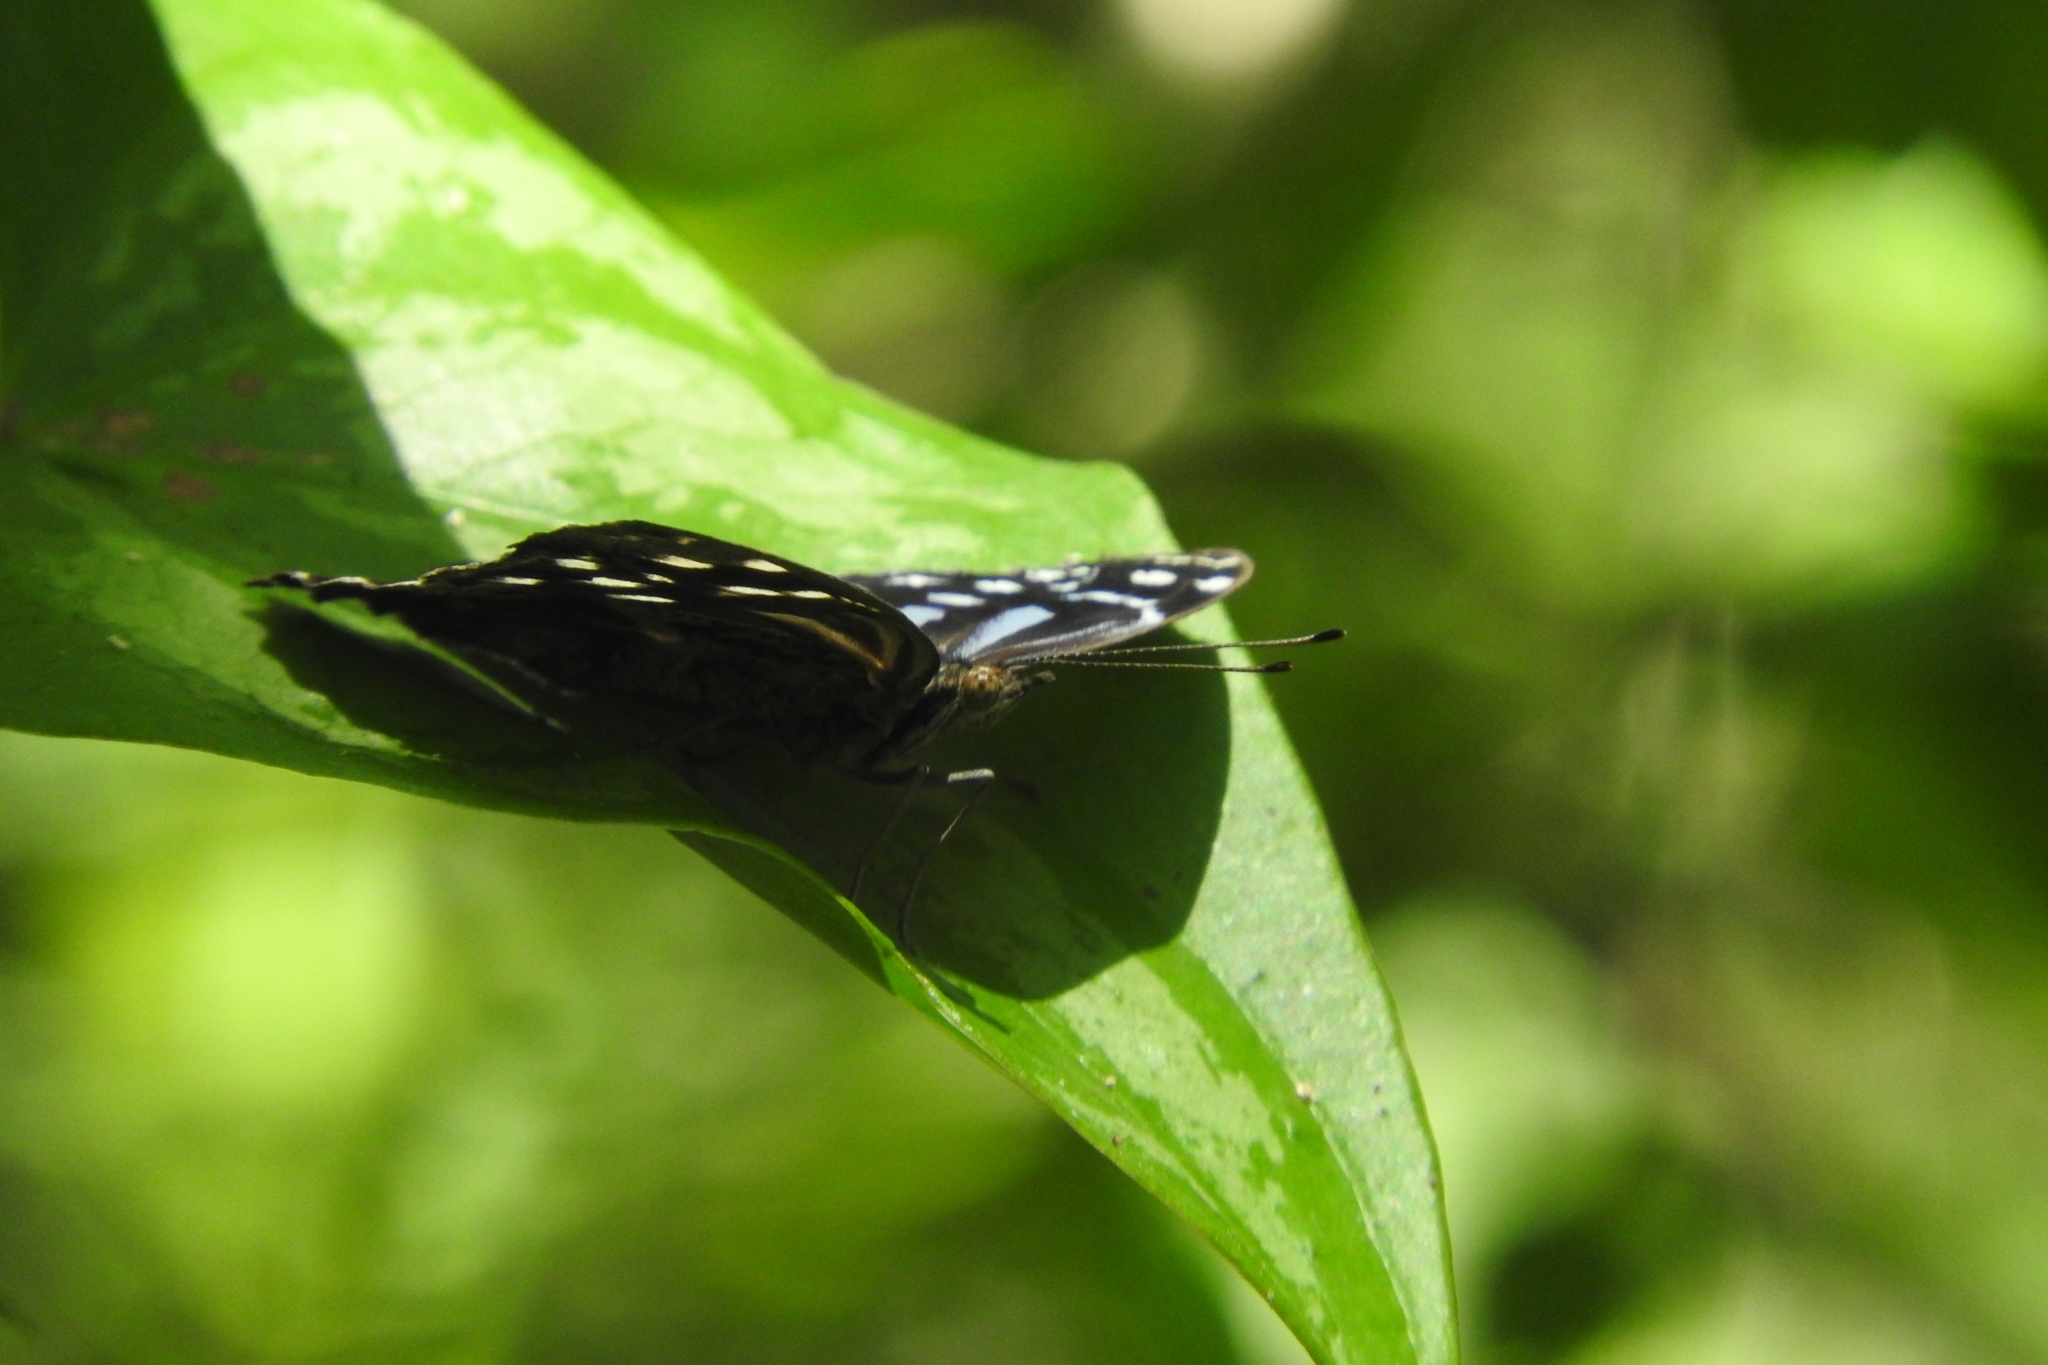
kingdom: Animalia
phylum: Arthropoda
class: Insecta
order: Lepidoptera
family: Nymphalidae
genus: Myscelia
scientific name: Myscelia ethusa
